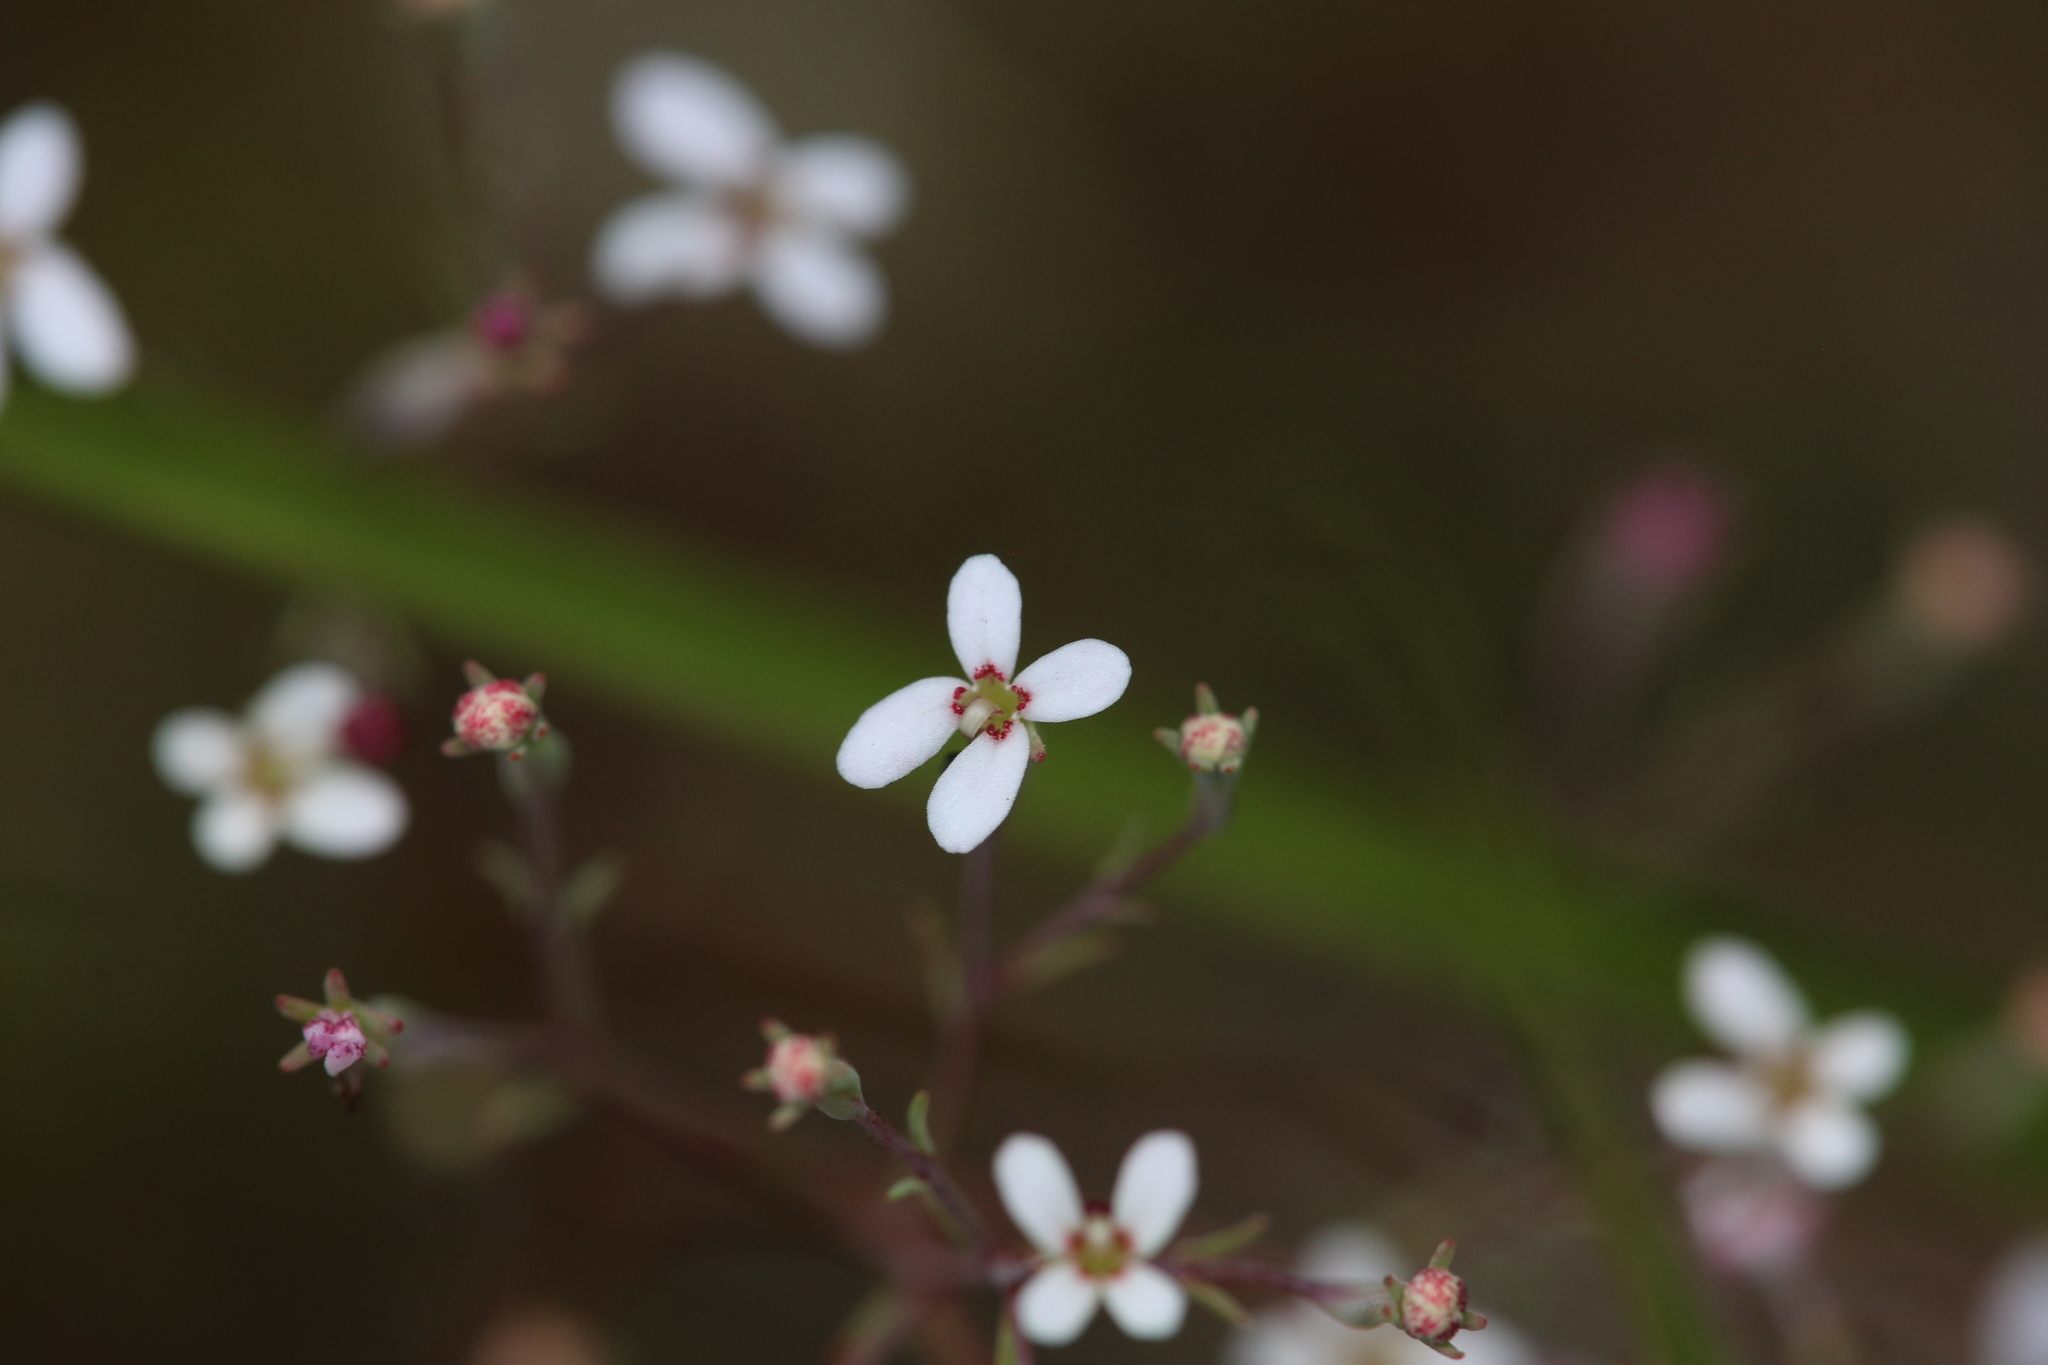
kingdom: Plantae
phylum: Tracheophyta
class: Magnoliopsida
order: Asterales
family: Stylidiaceae
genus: Stylidium
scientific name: Stylidium pulchellum
